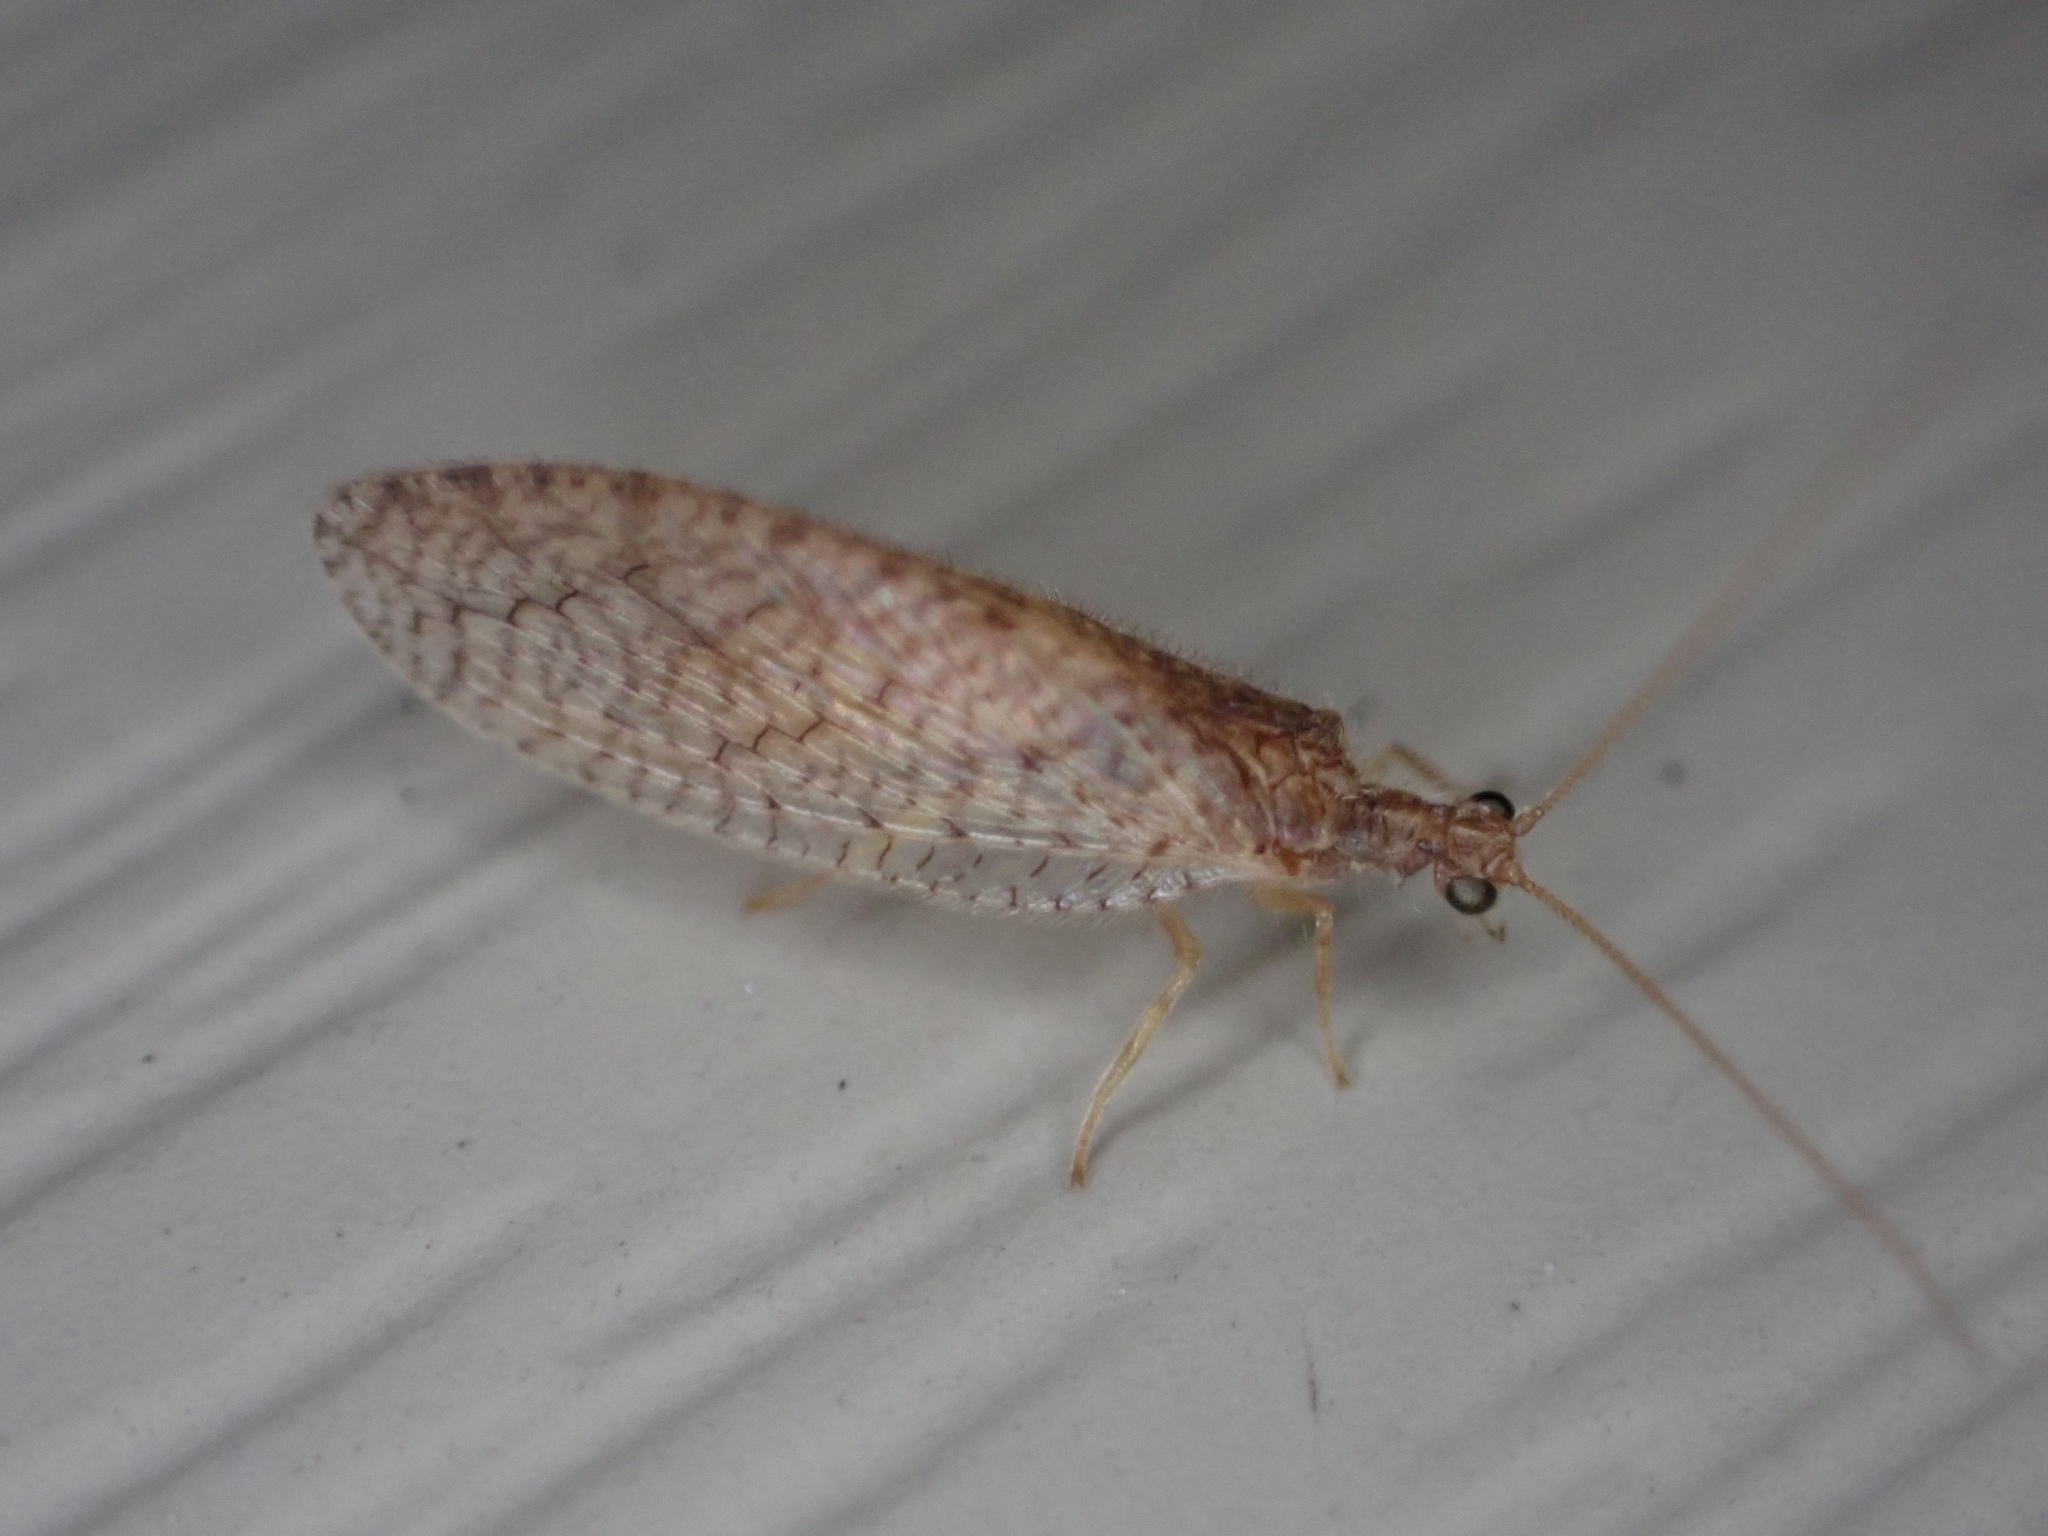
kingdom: Animalia
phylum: Arthropoda
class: Insecta
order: Neuroptera
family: Hemerobiidae
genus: Micromus
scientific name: Micromus posticus
